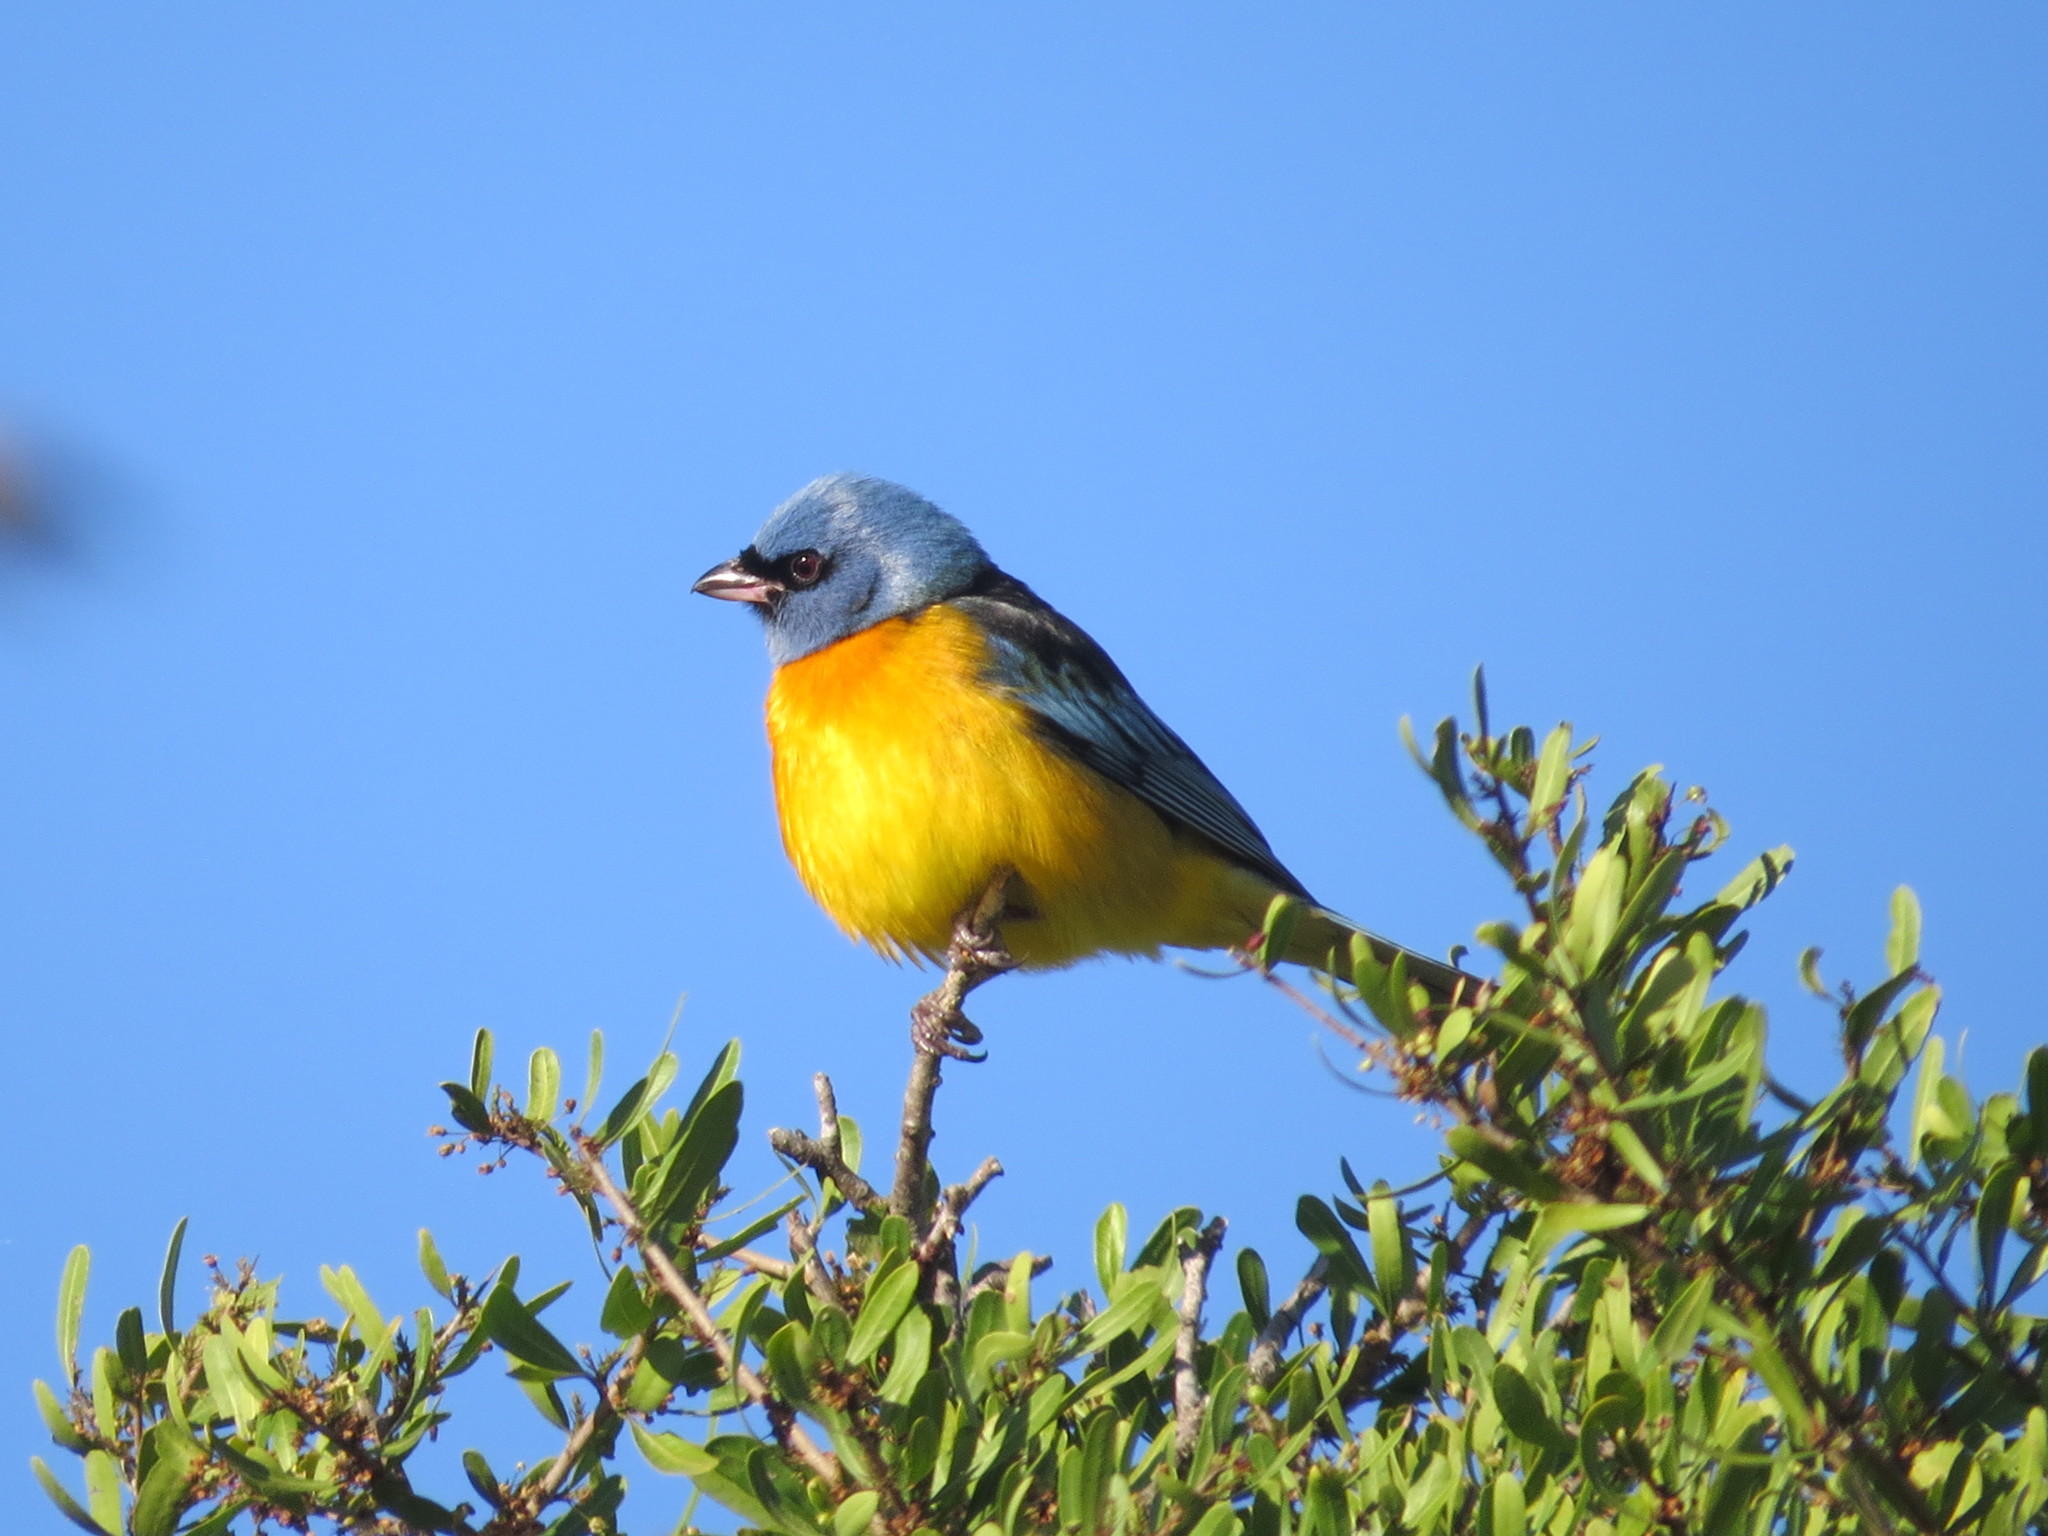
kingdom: Animalia
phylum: Chordata
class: Aves
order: Passeriformes
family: Thraupidae
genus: Rauenia
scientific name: Rauenia bonariensis
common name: Blue-and-yellow tanager
